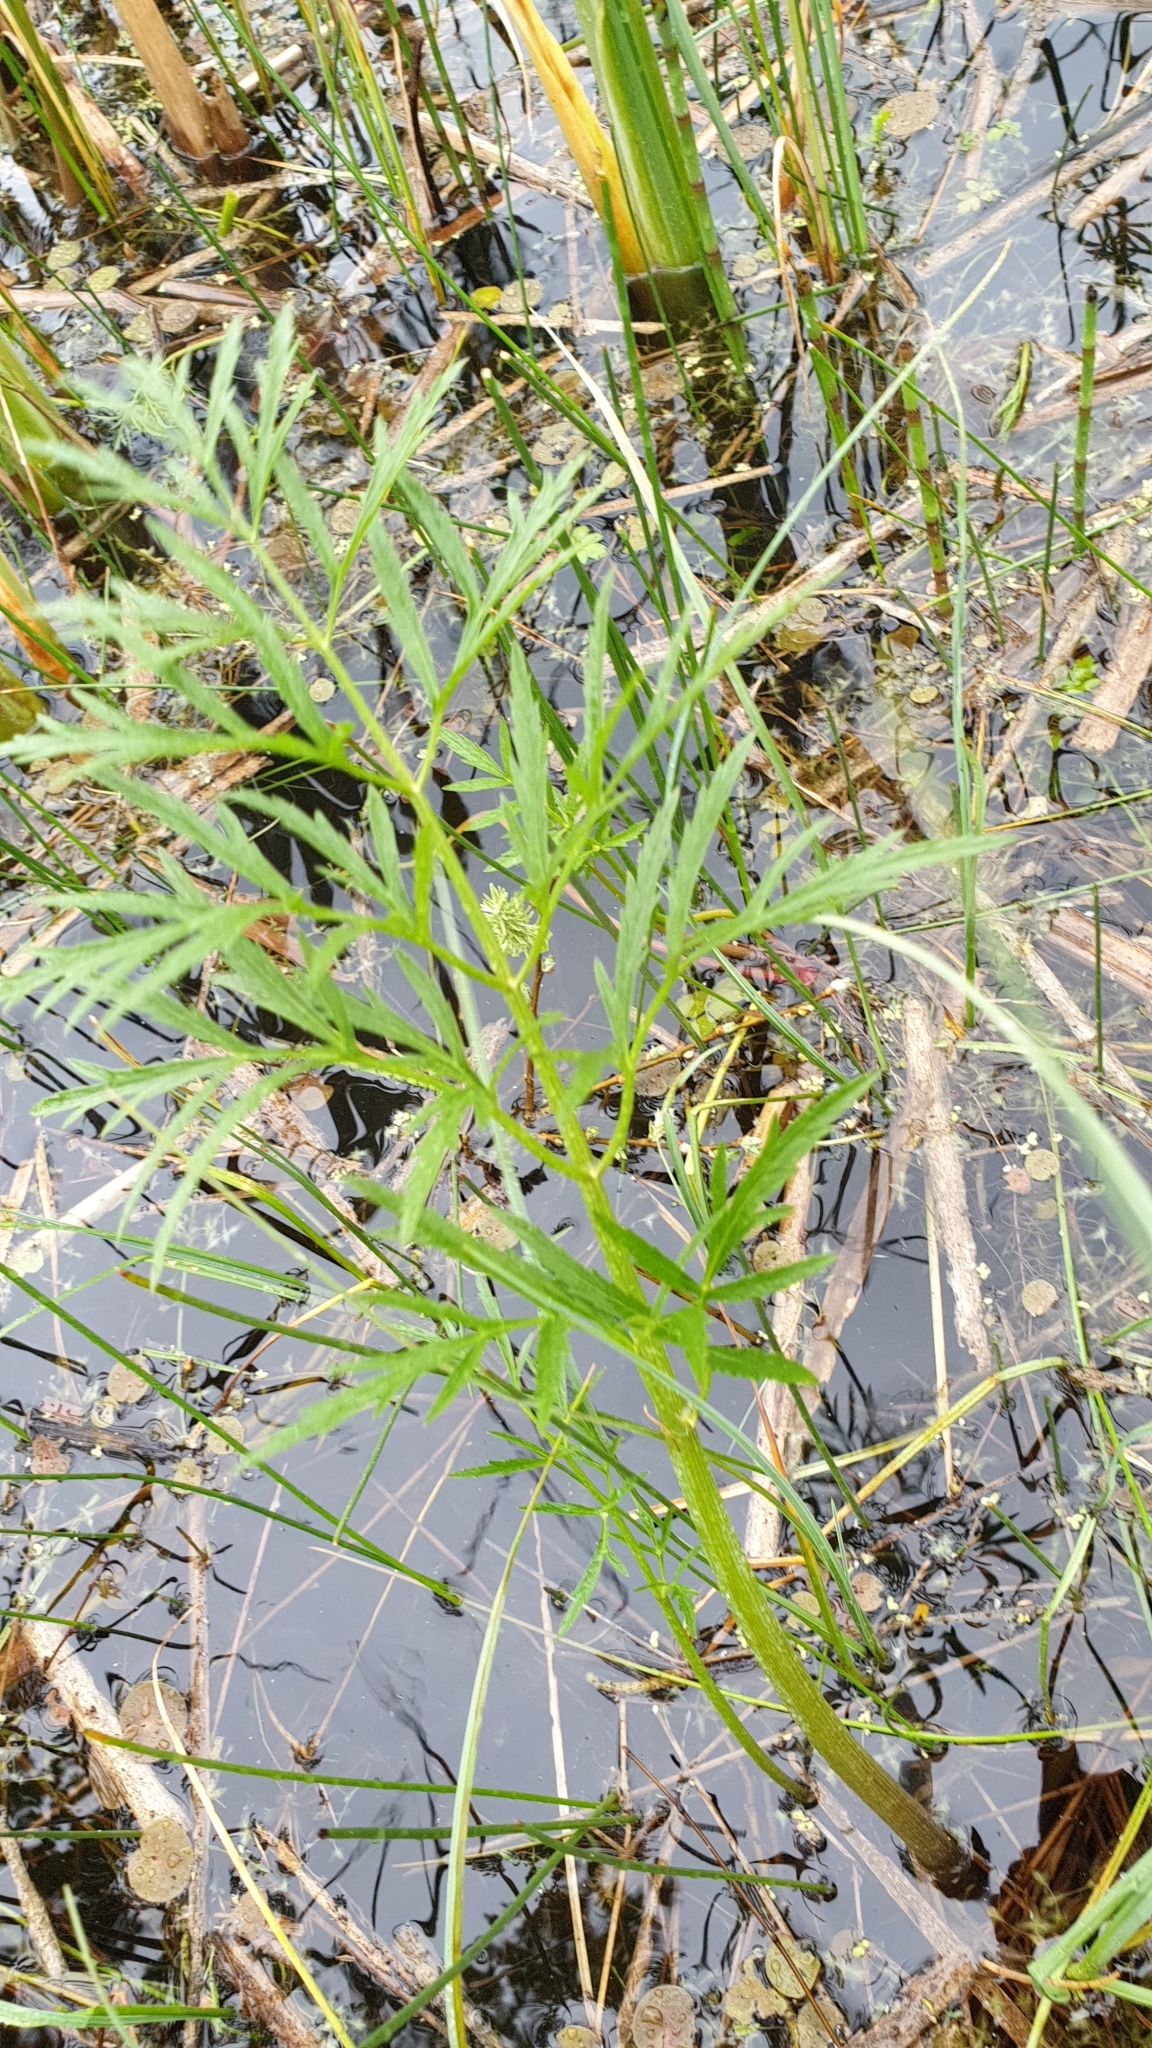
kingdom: Plantae
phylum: Tracheophyta
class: Magnoliopsida
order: Apiales
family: Apiaceae
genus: Cicuta
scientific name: Cicuta virosa
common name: Cowbane
